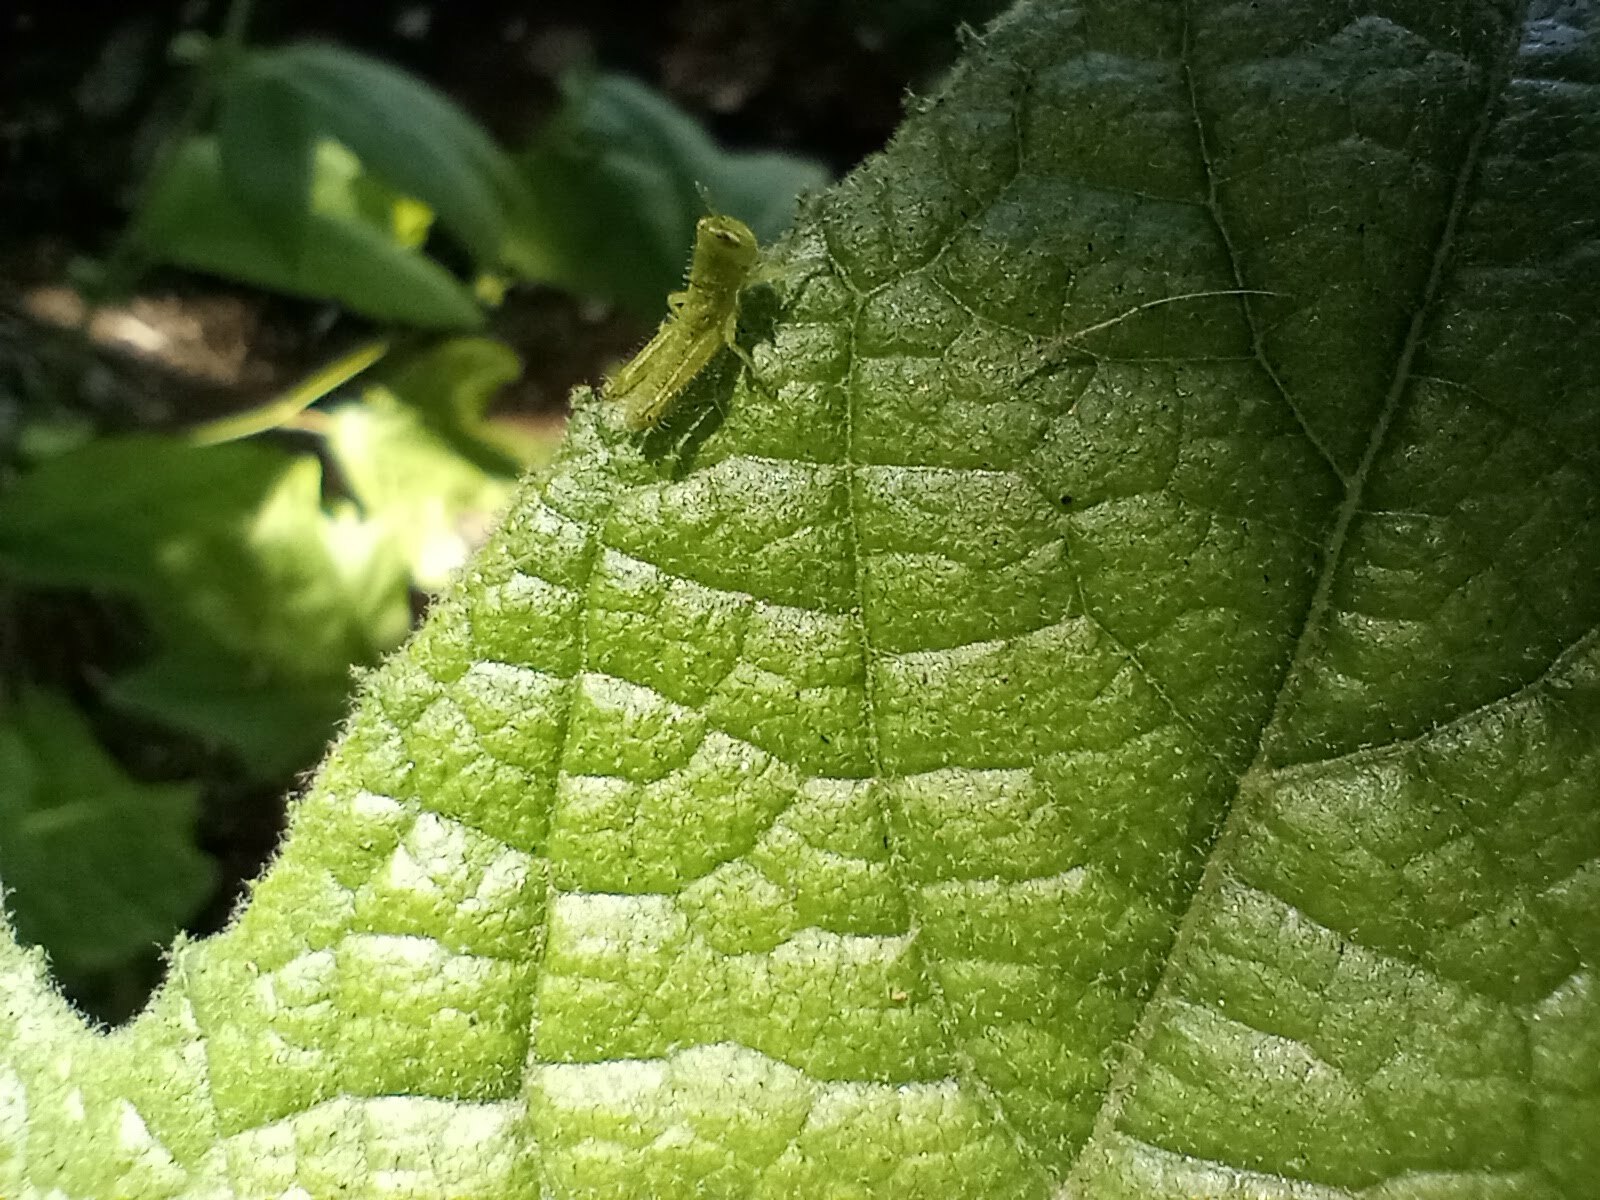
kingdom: Animalia
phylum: Arthropoda
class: Insecta
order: Orthoptera
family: Acrididae
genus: Schistocerca
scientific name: Schistocerca nitens
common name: Vagrant grasshopper
